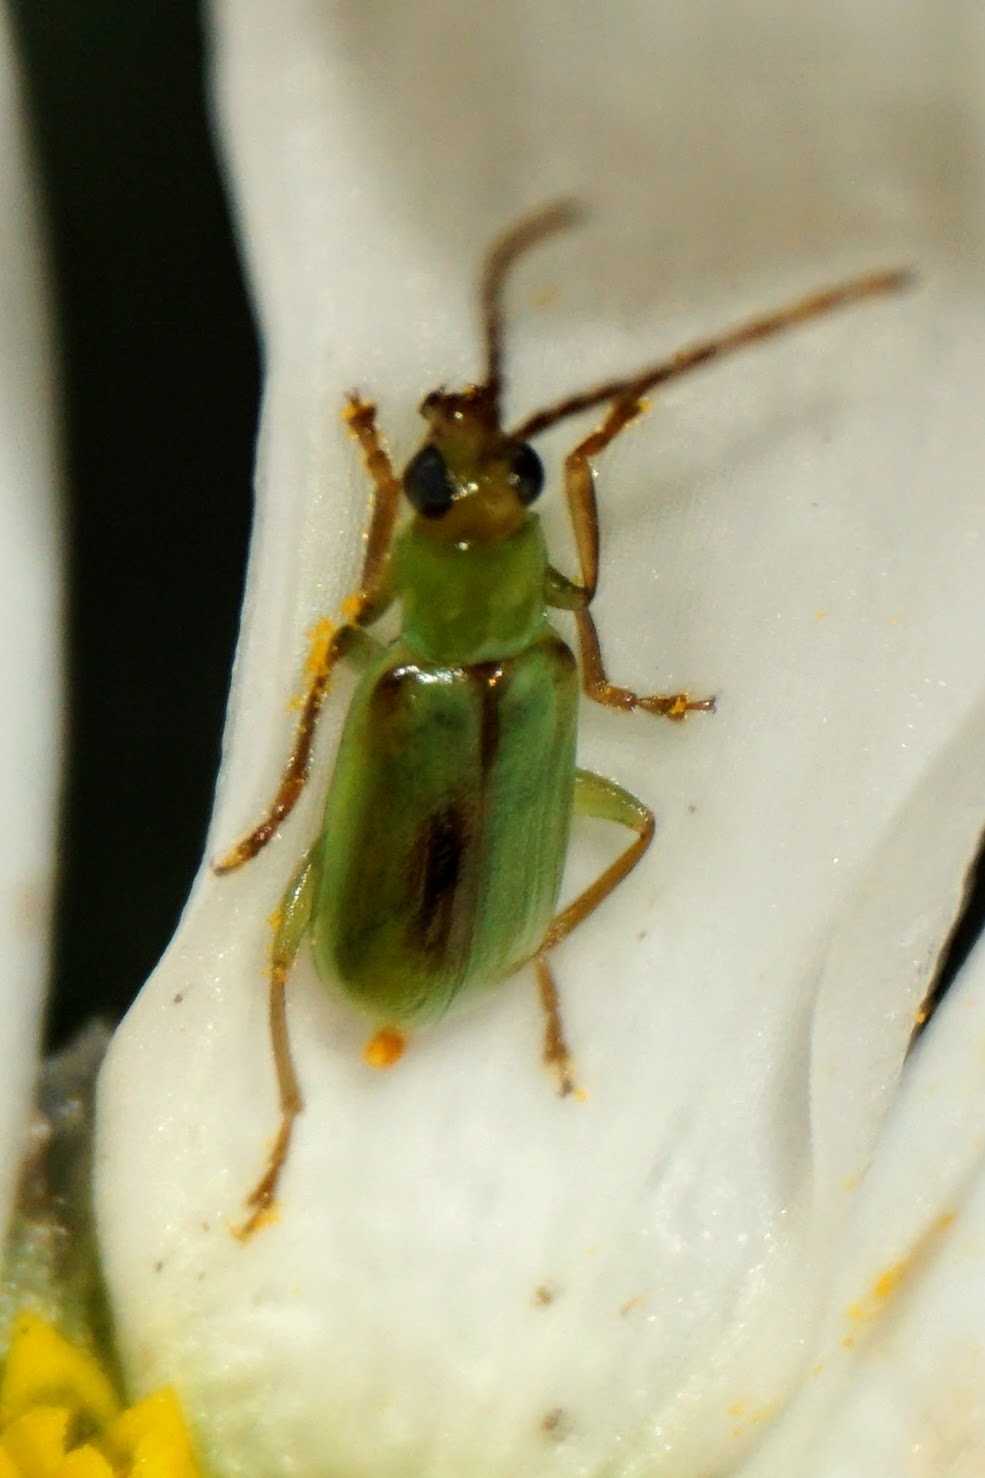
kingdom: Animalia
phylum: Arthropoda
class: Insecta
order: Coleoptera
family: Chrysomelidae
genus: Diabrotica
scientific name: Diabrotica barberi
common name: Northern corn rootworm
